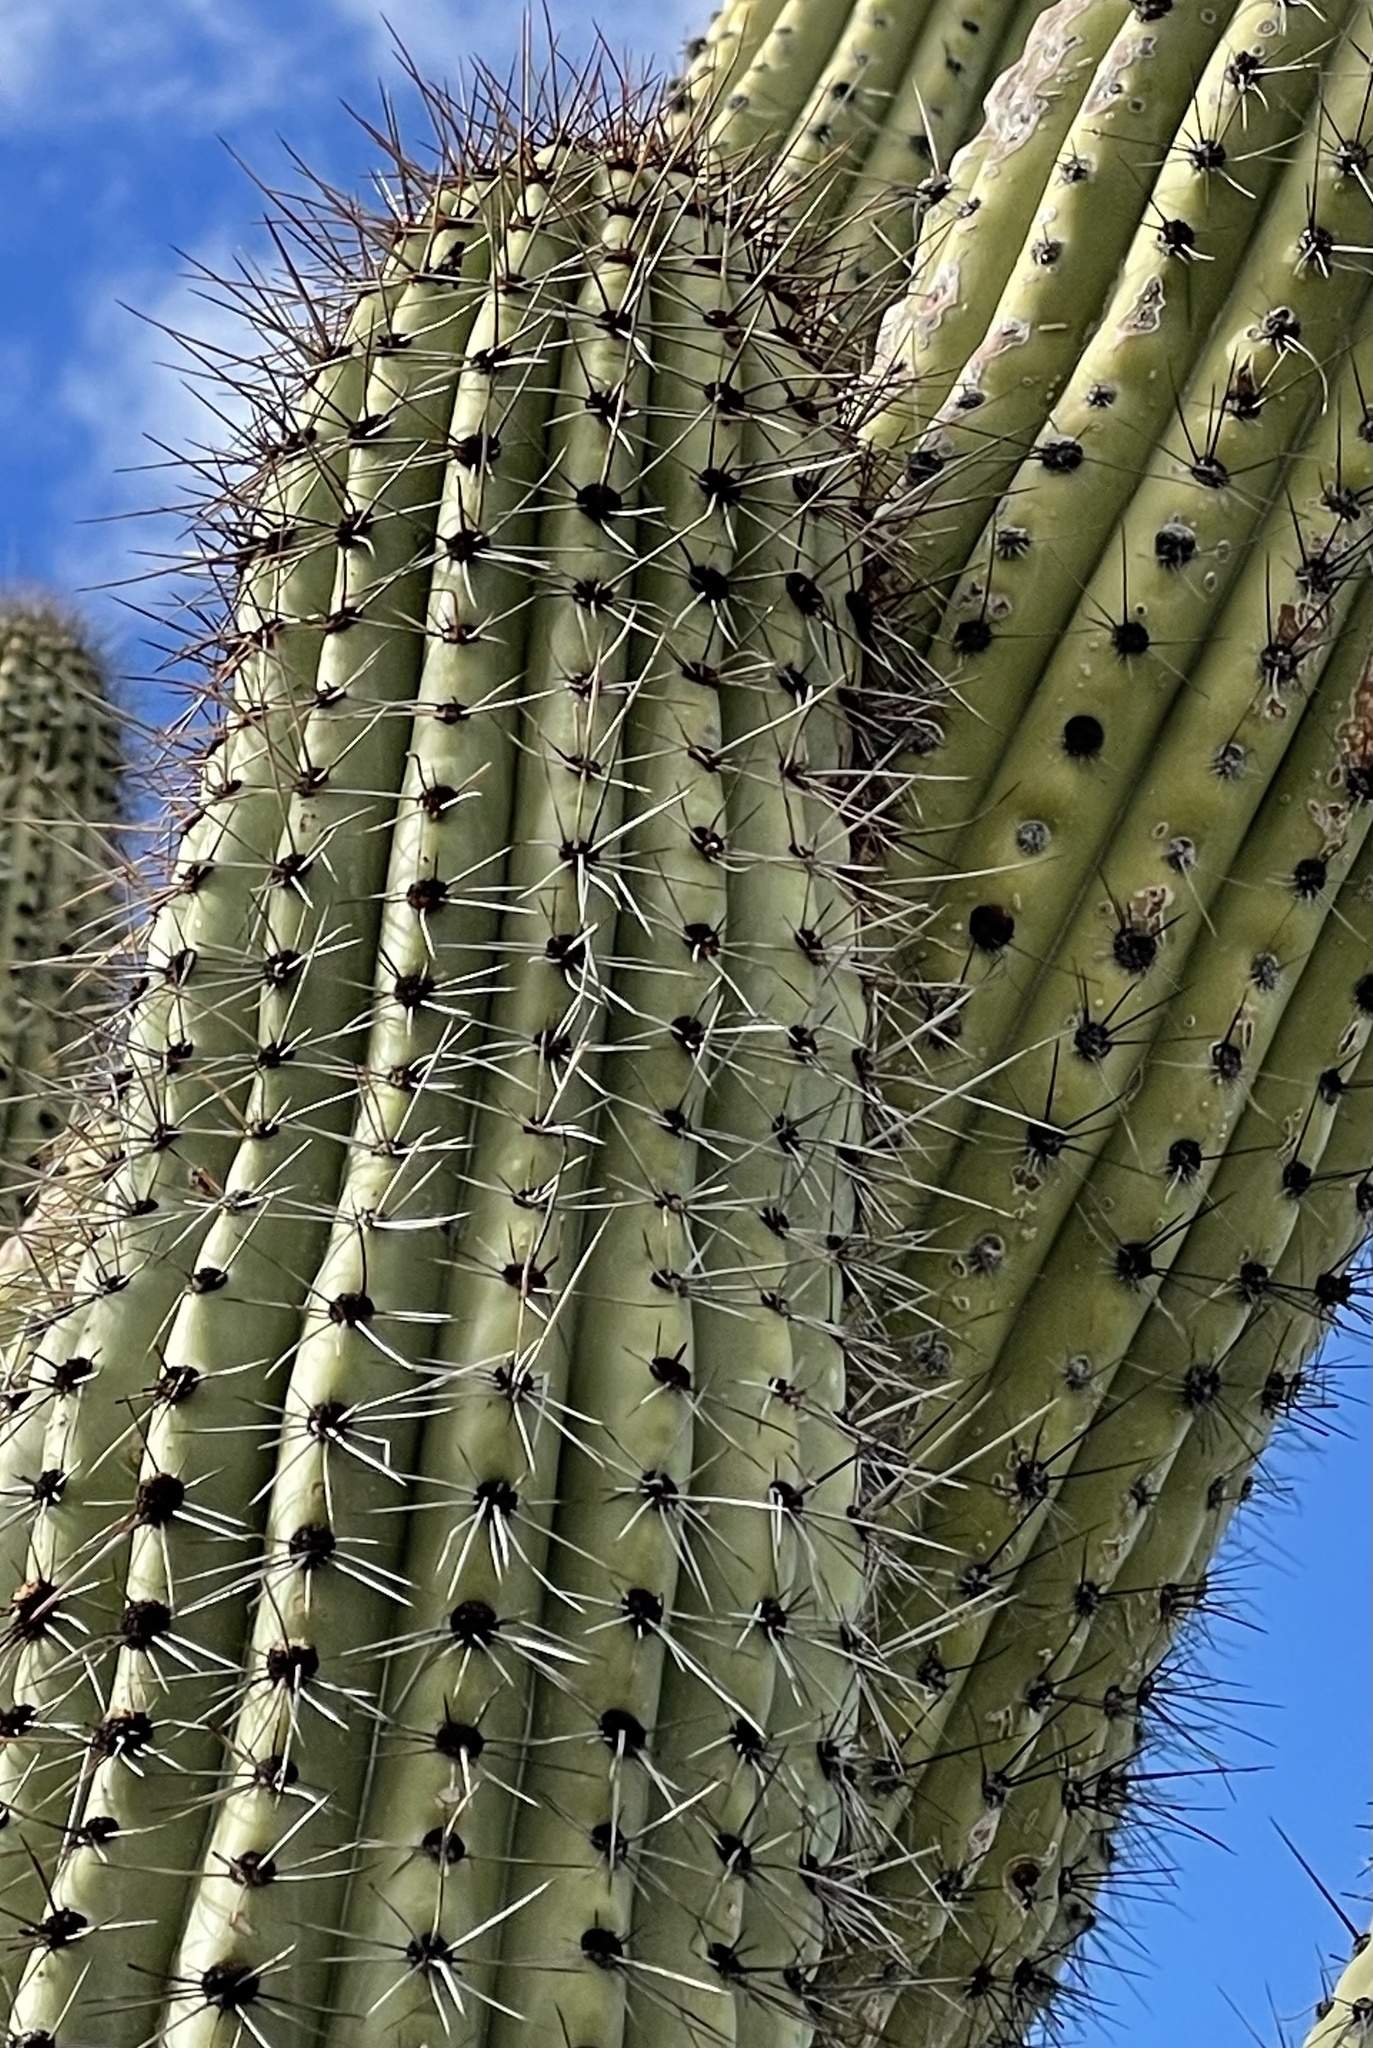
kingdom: Plantae
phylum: Tracheophyta
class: Magnoliopsida
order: Caryophyllales
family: Cactaceae
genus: Stenocereus
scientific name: Stenocereus thurberi
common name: Organ pipe cactus
